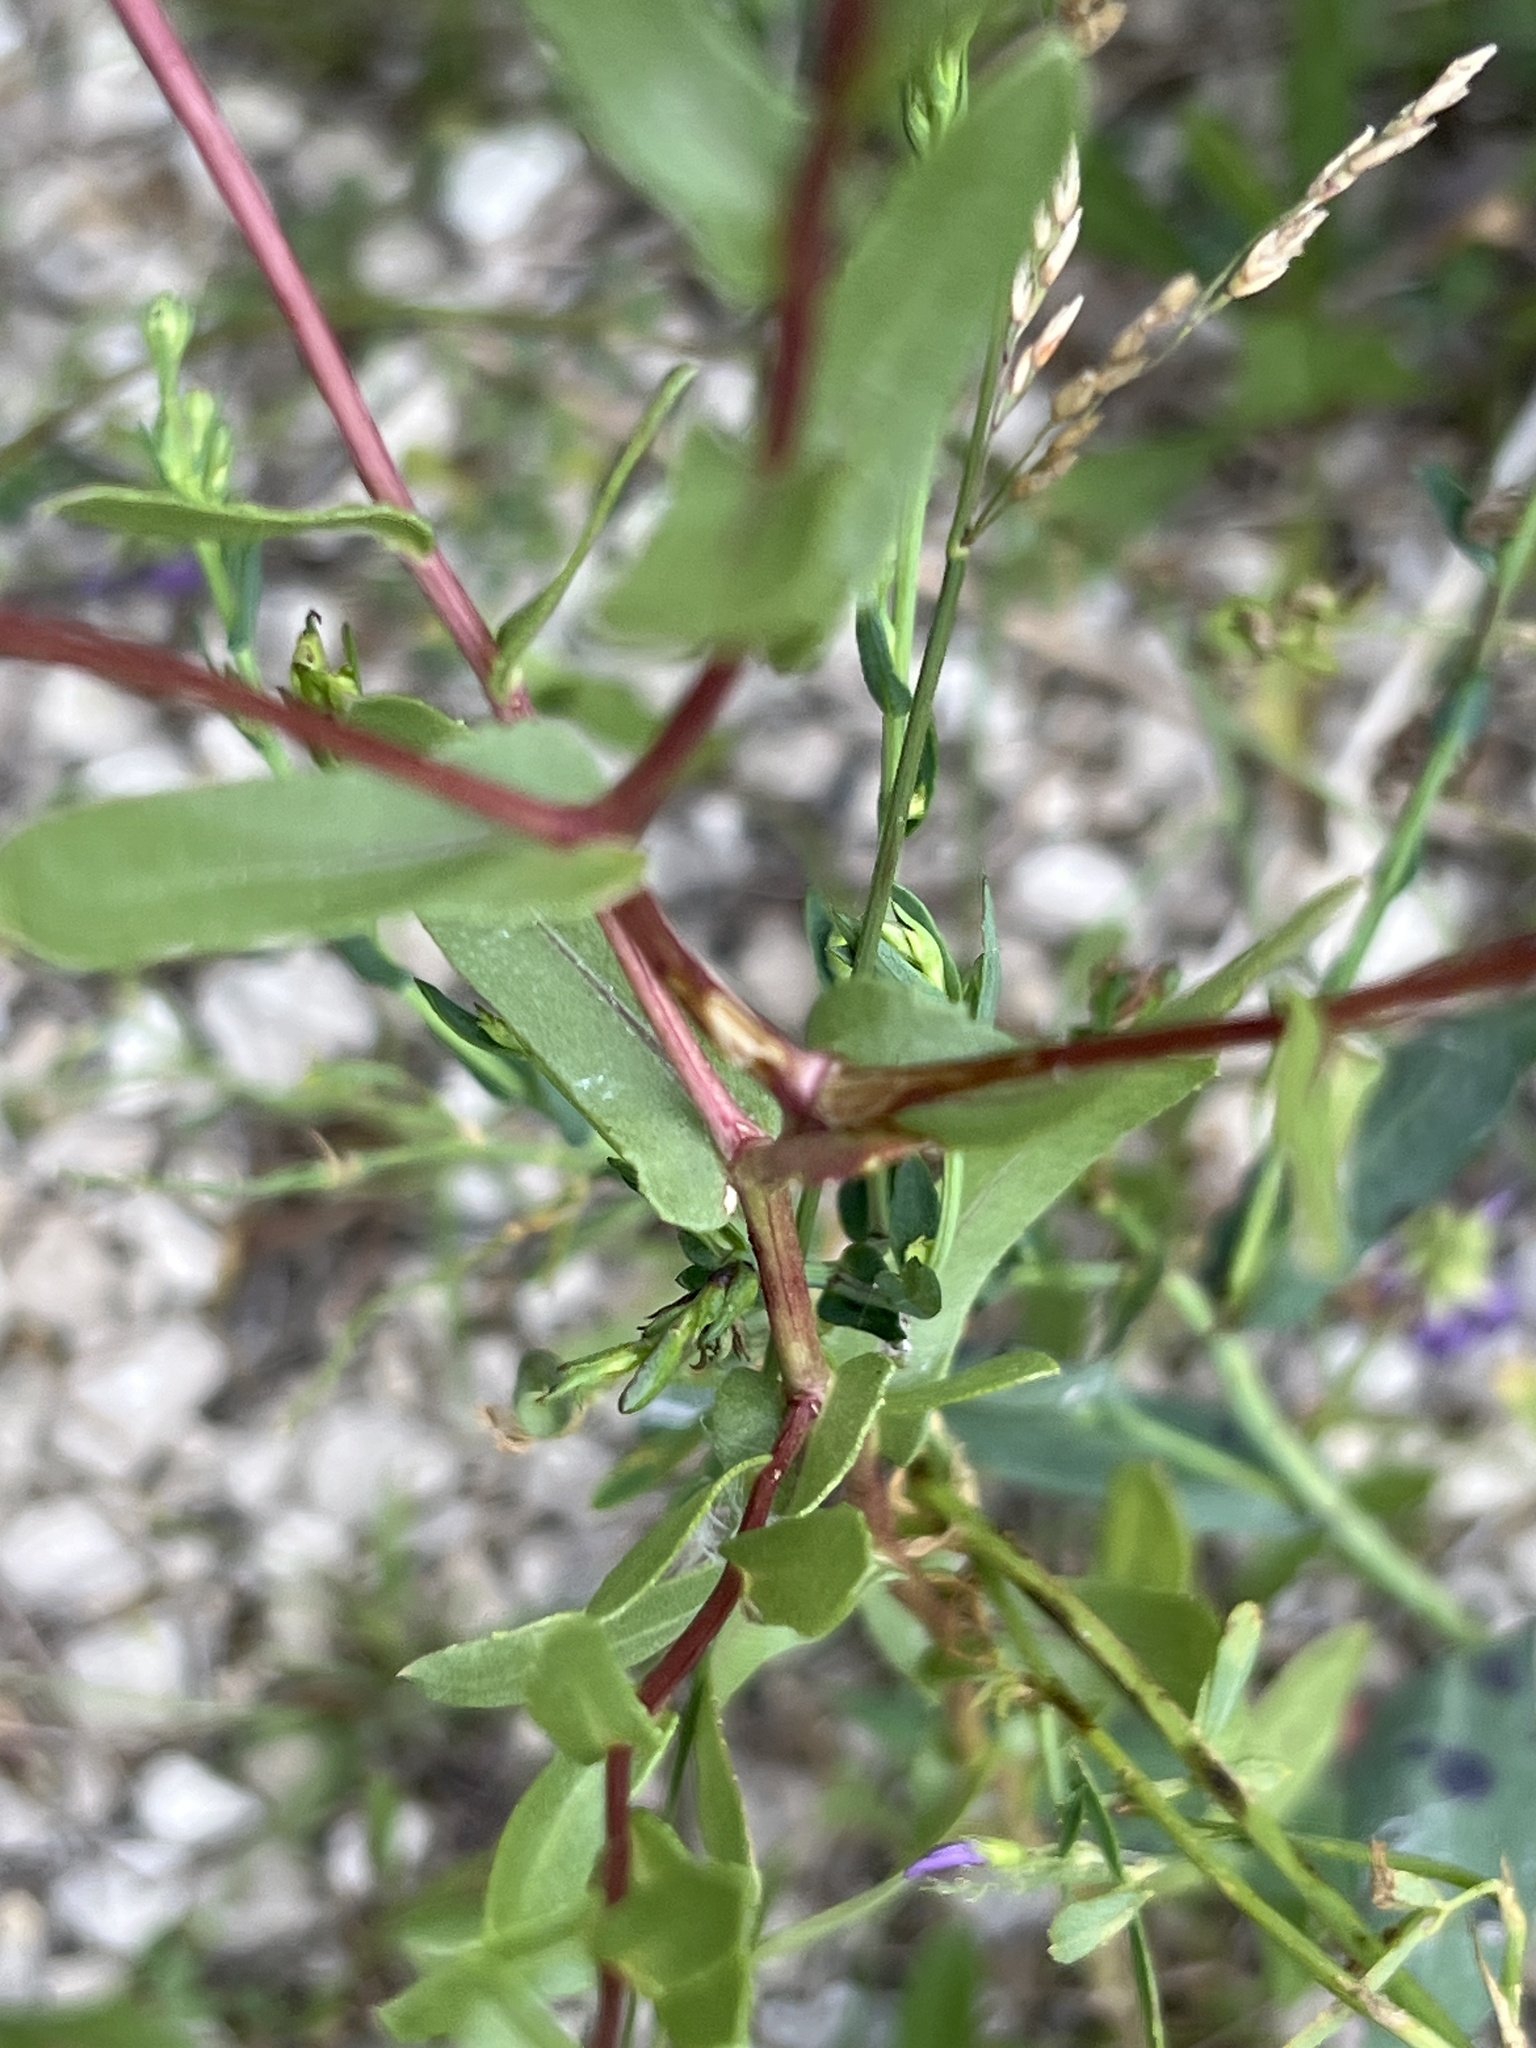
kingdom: Plantae
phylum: Tracheophyta
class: Magnoliopsida
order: Asterales
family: Asteraceae
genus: Grindelia
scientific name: Grindelia squarrosa
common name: Curly-cup gumweed
